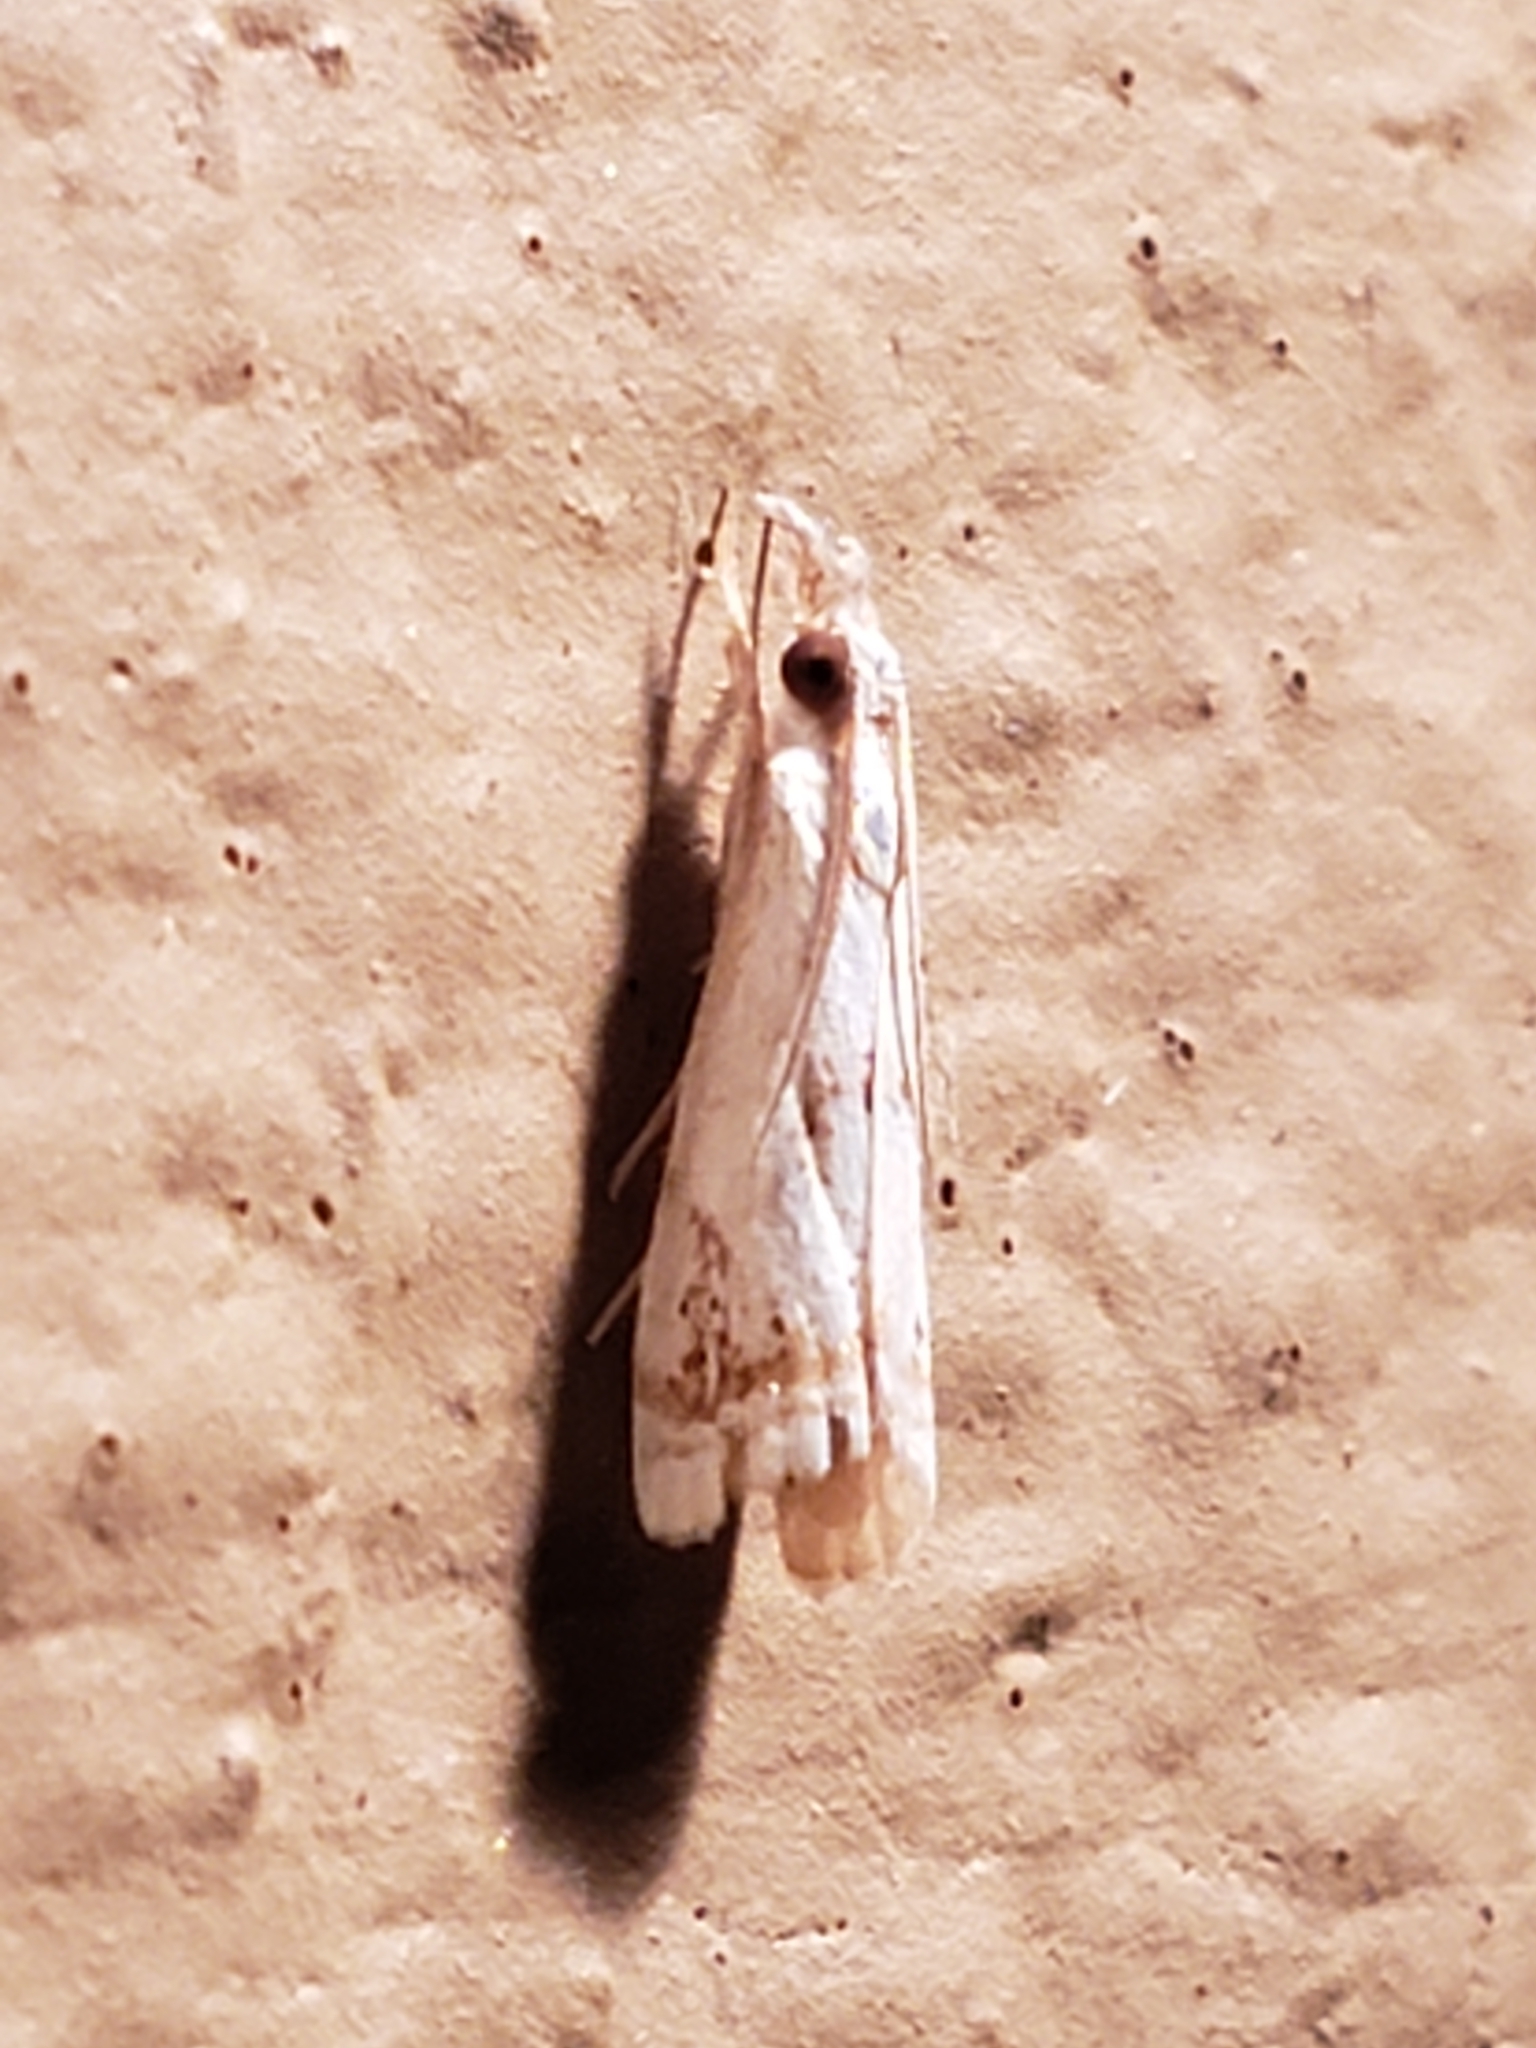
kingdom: Animalia
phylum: Arthropoda
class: Insecta
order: Lepidoptera
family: Crambidae
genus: Microcrambus
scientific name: Microcrambus elegans
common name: Elegant grass-veneer
